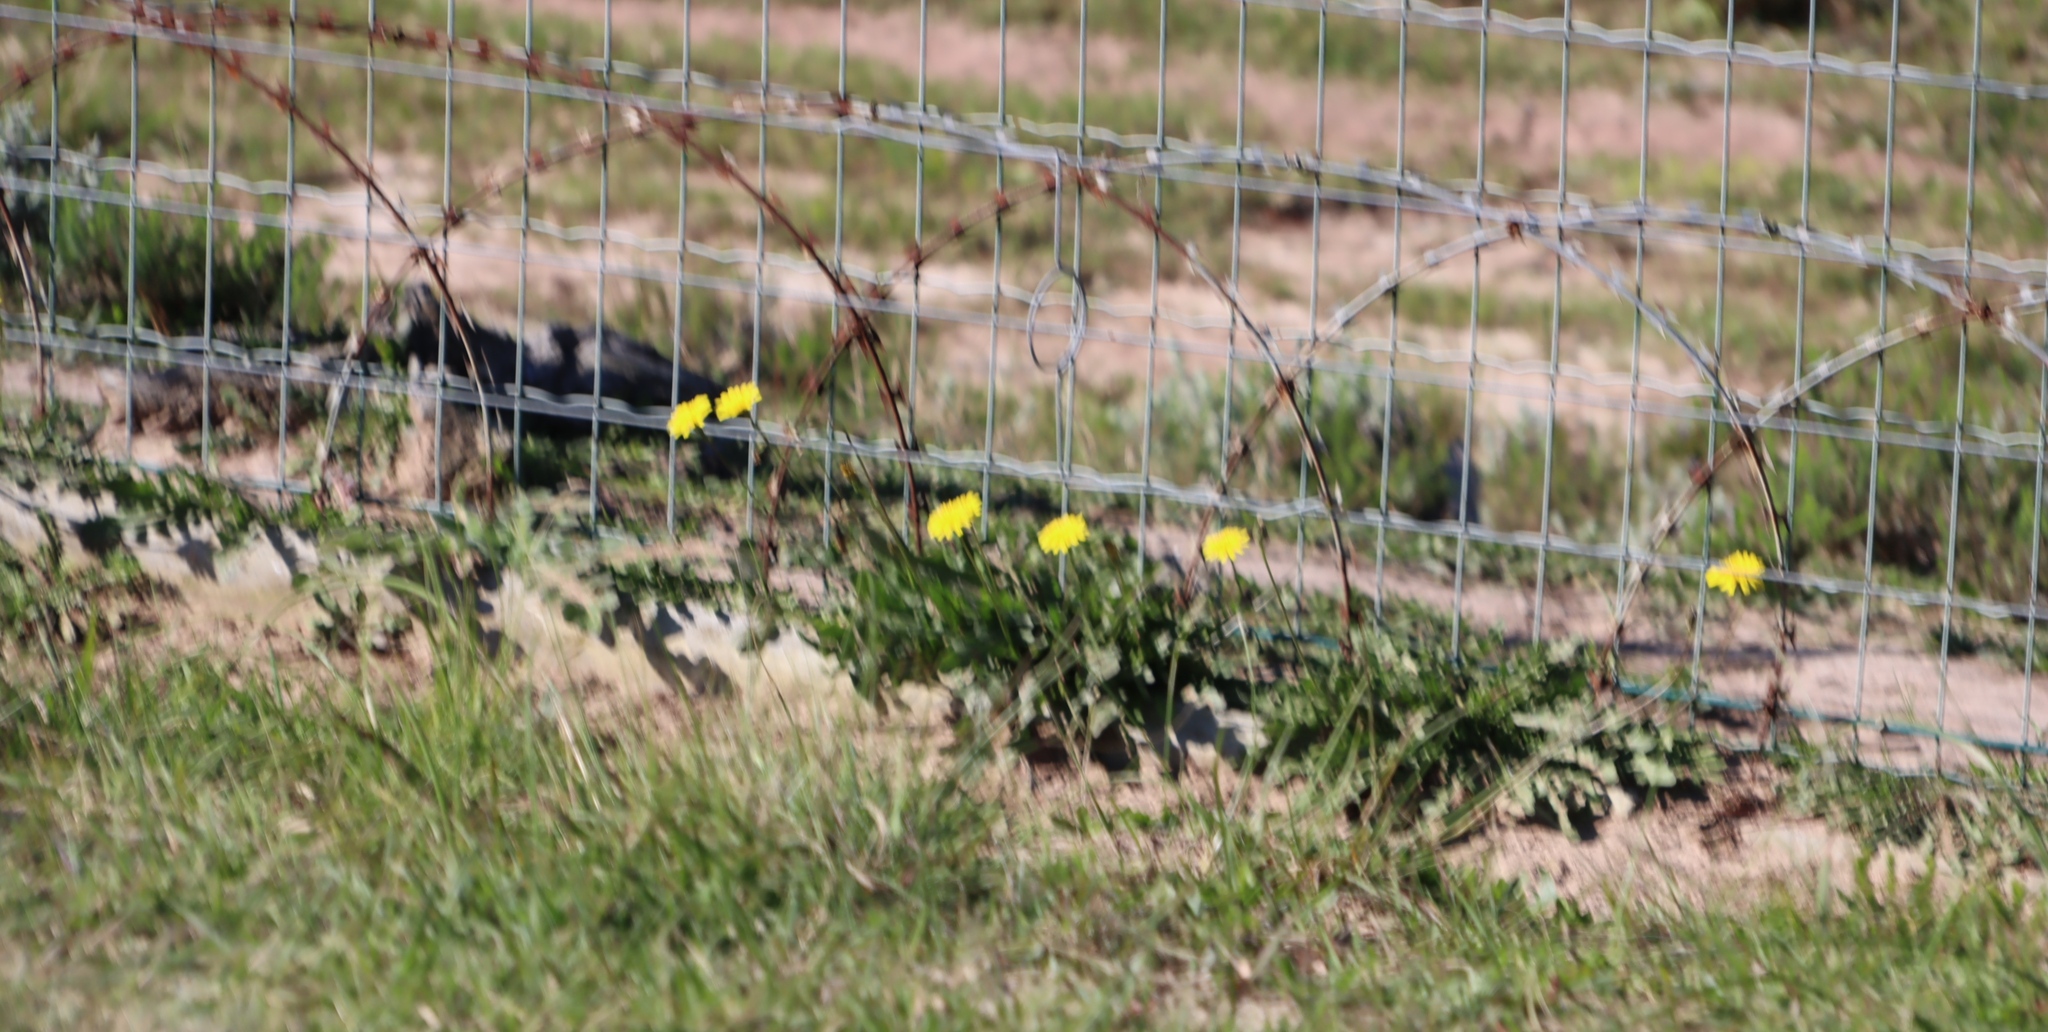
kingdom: Plantae
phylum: Tracheophyta
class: Magnoliopsida
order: Asterales
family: Asteraceae
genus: Hypochaeris
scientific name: Hypochaeris radicata
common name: Flatweed
